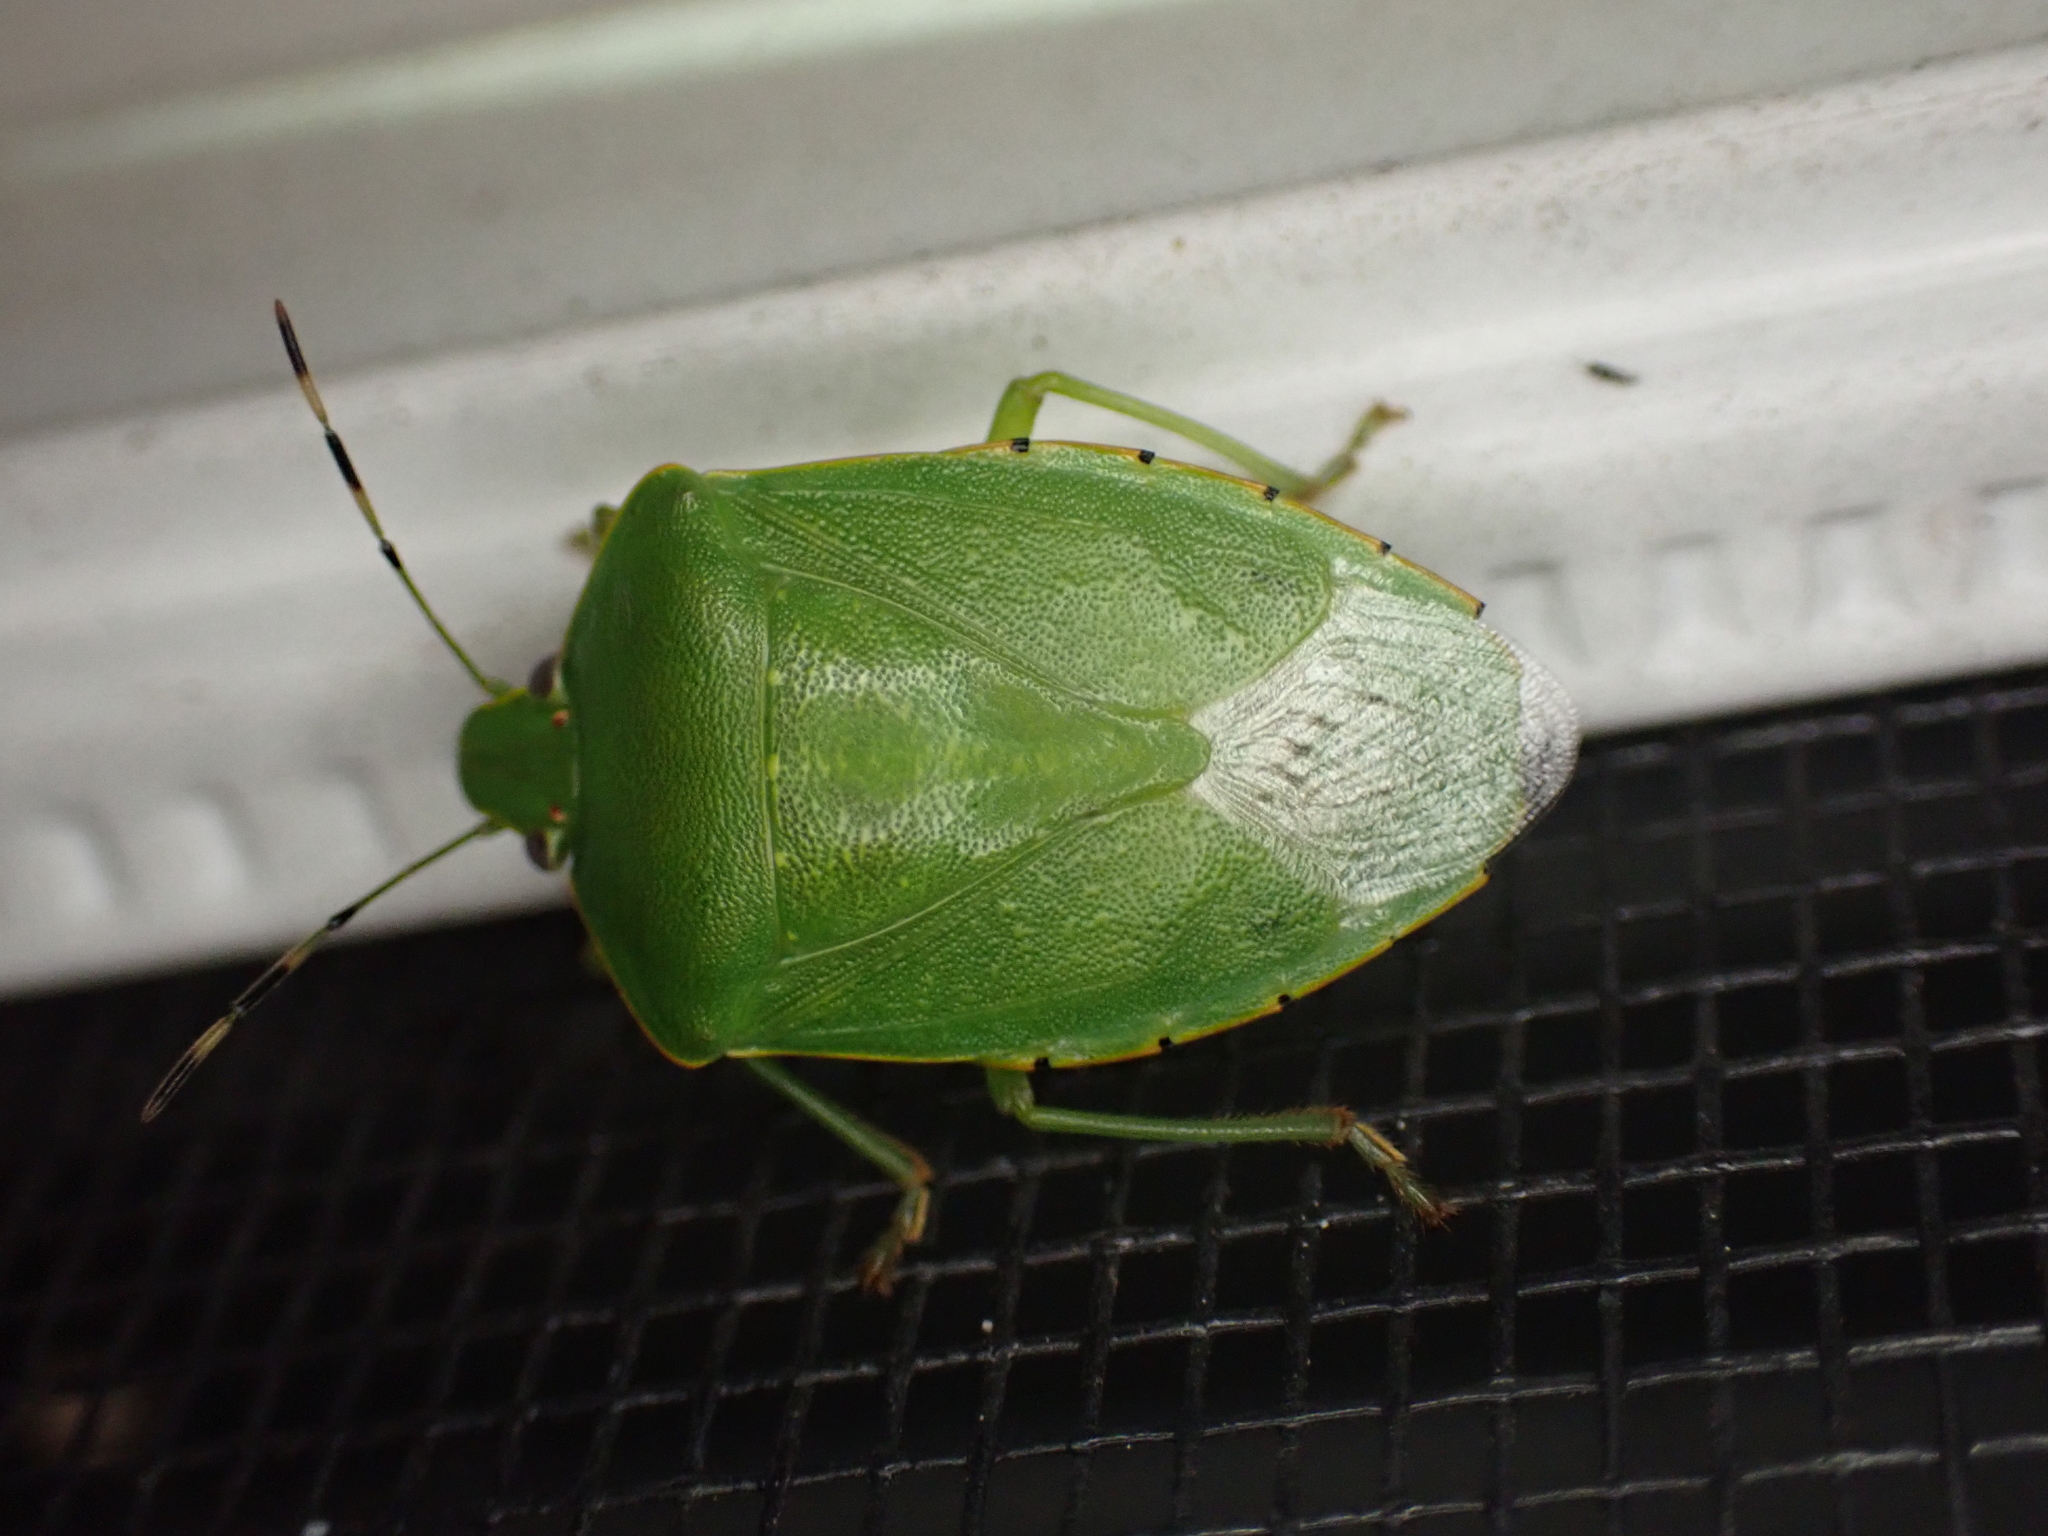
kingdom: Animalia
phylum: Arthropoda
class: Insecta
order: Hemiptera
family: Pentatomidae
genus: Chinavia
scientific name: Chinavia hilaris
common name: Green stink bug
